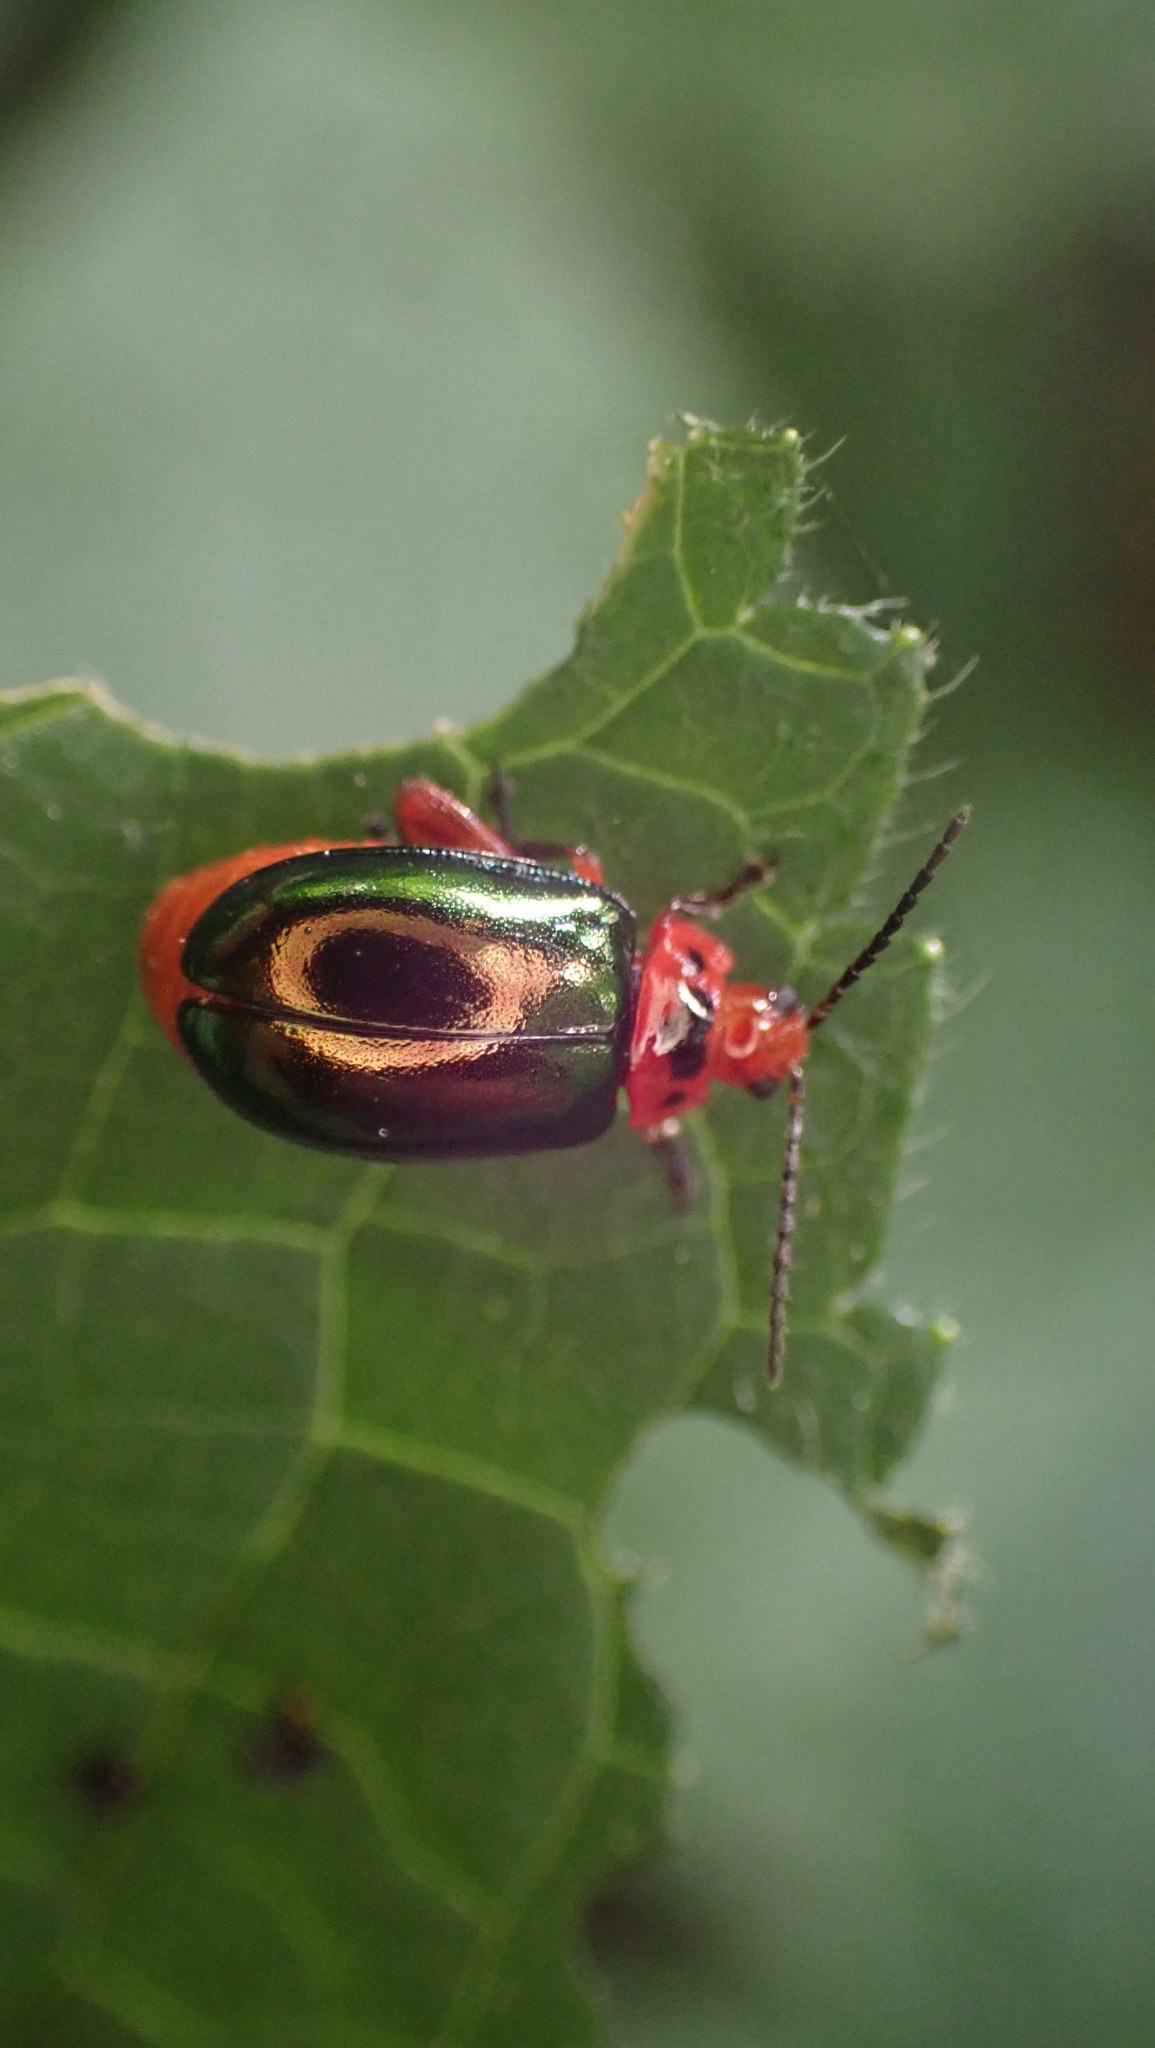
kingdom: Animalia
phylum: Arthropoda
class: Insecta
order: Coleoptera
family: Chrysomelidae
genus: Kuschelina
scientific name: Kuschelina gibbitarsa
